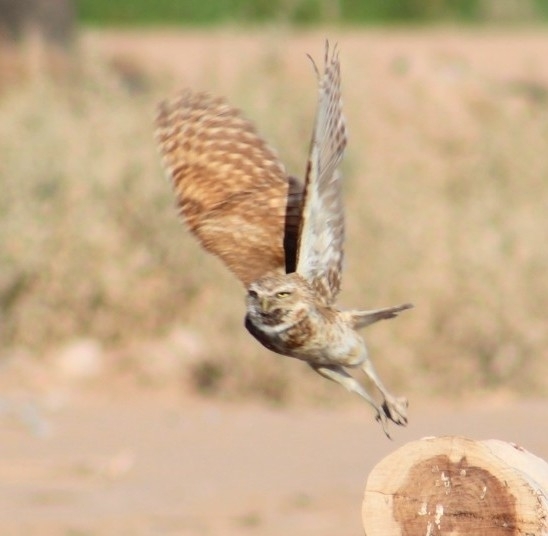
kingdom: Animalia
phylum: Chordata
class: Aves
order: Strigiformes
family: Strigidae
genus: Athene
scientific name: Athene cunicularia
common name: Burrowing owl
